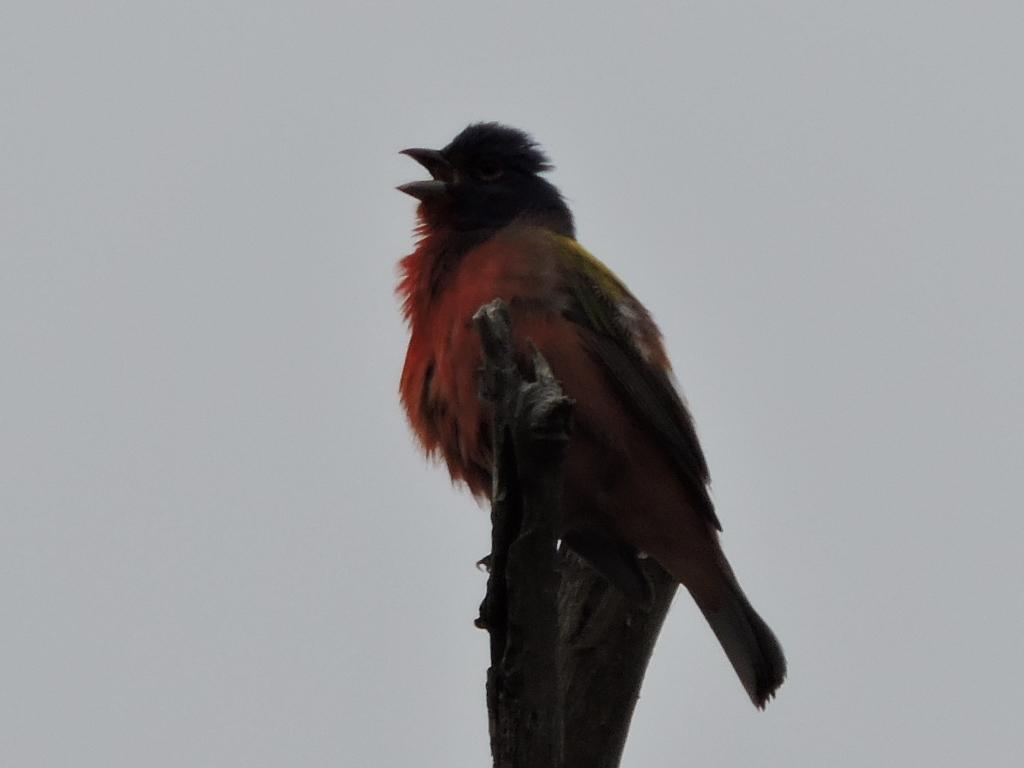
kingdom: Animalia
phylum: Chordata
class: Aves
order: Passeriformes
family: Cardinalidae
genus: Passerina
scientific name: Passerina ciris
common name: Painted bunting
